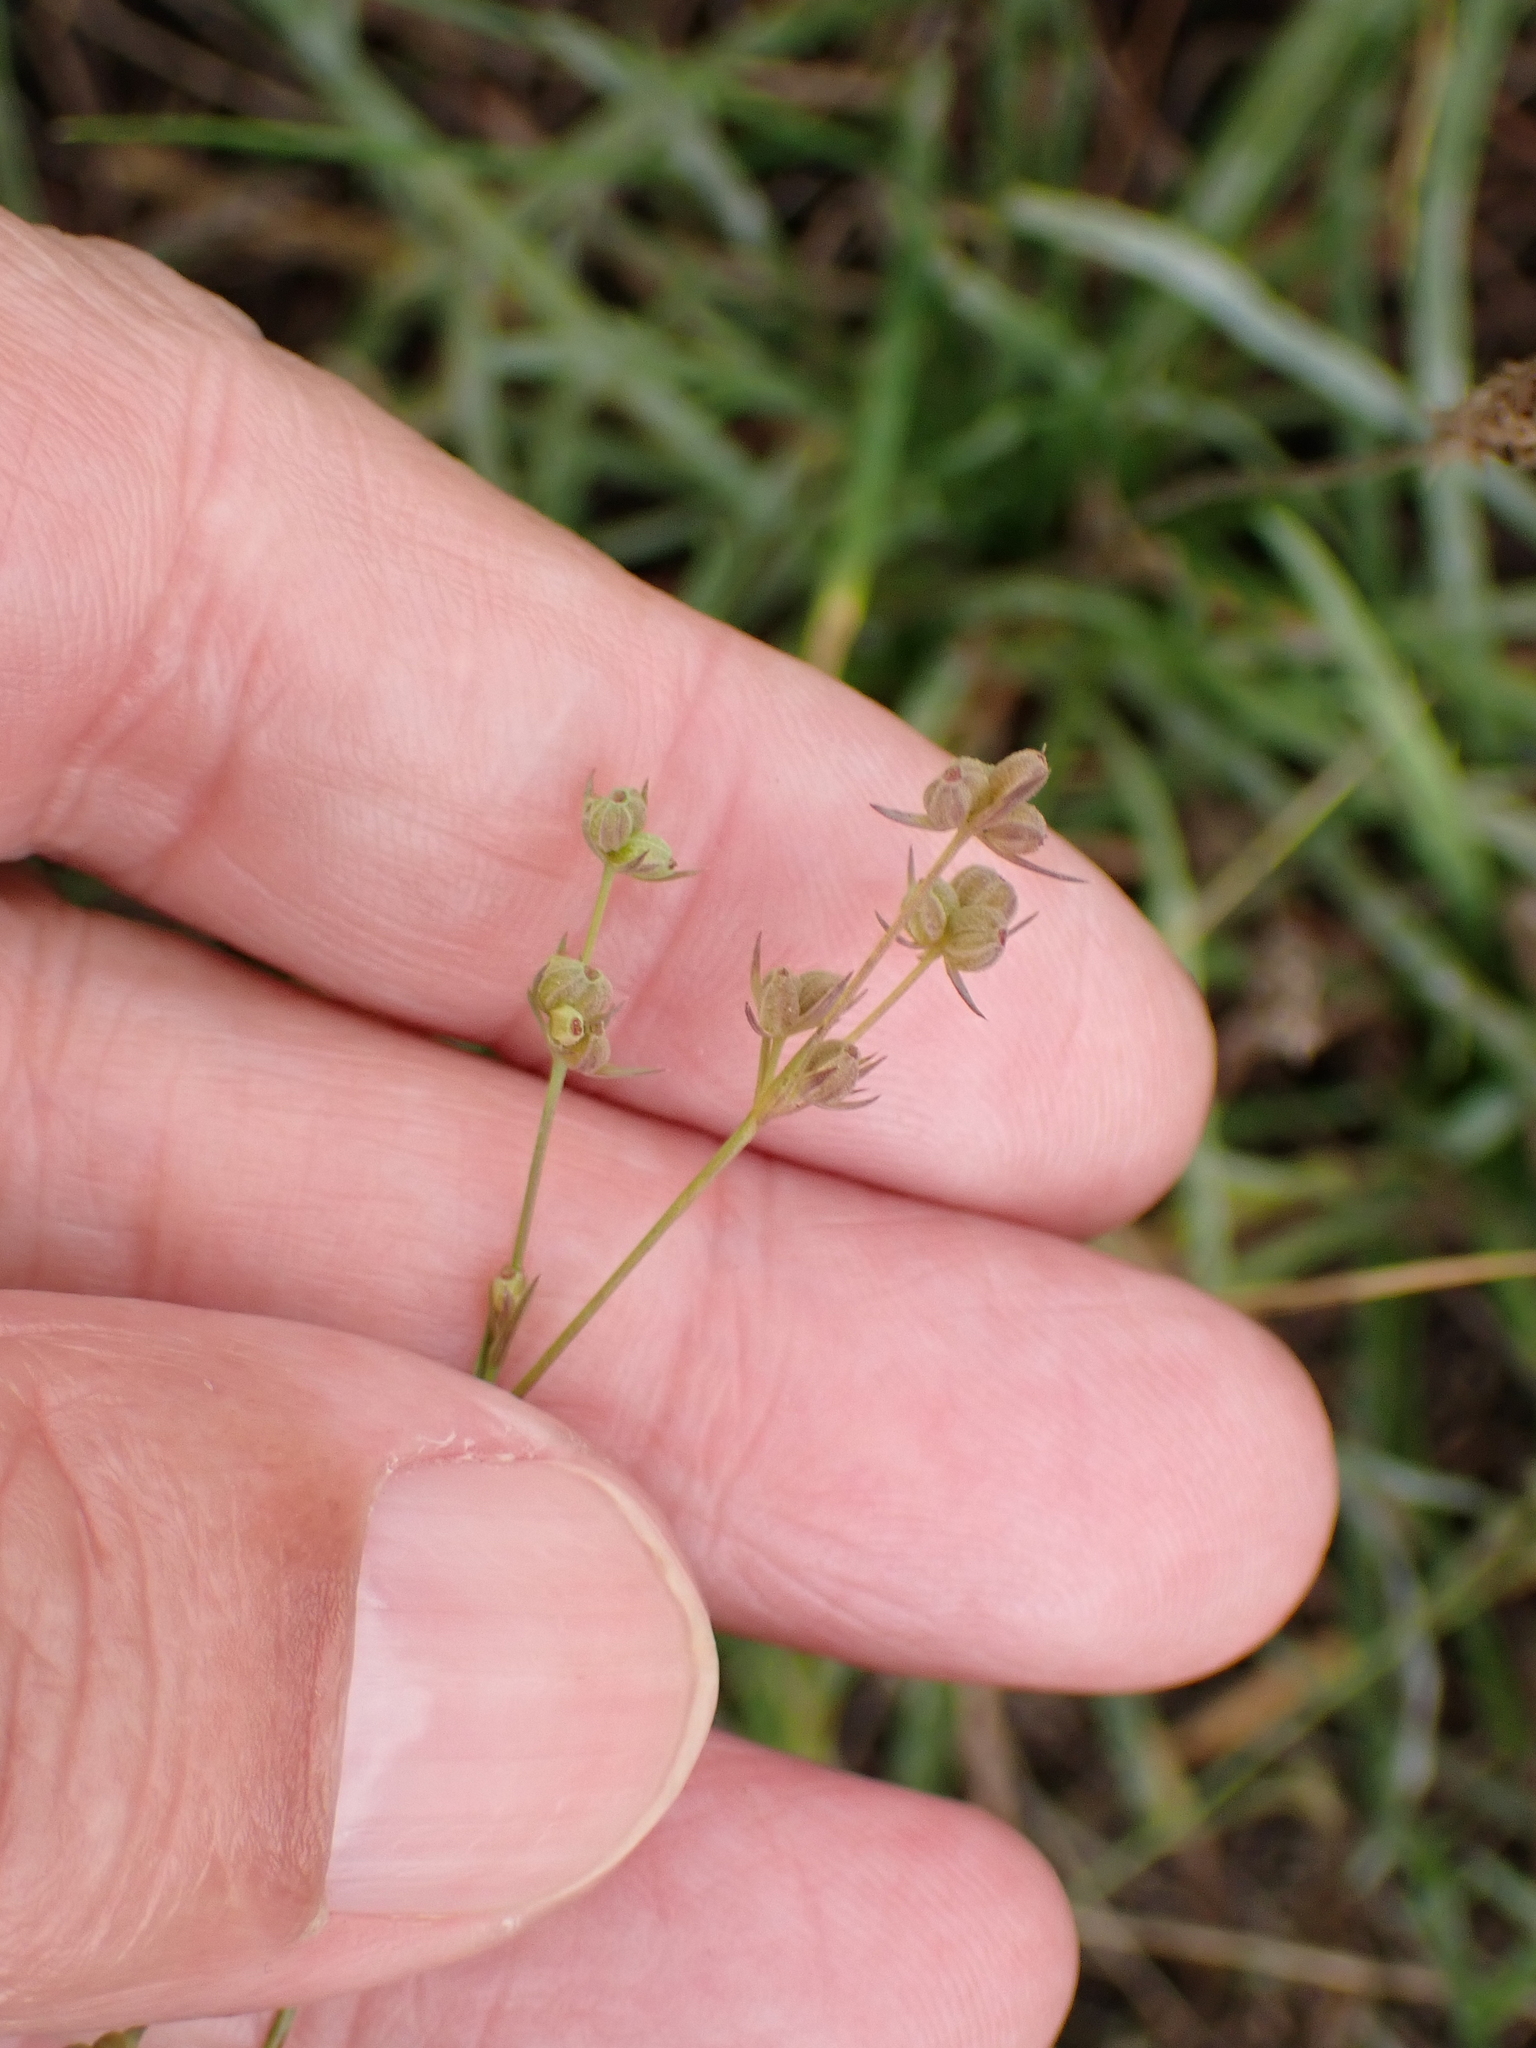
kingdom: Plantae
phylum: Tracheophyta
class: Magnoliopsida
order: Apiales
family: Apiaceae
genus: Bupleurum
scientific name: Bupleurum tenuissimum
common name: Slender hare's-ear
